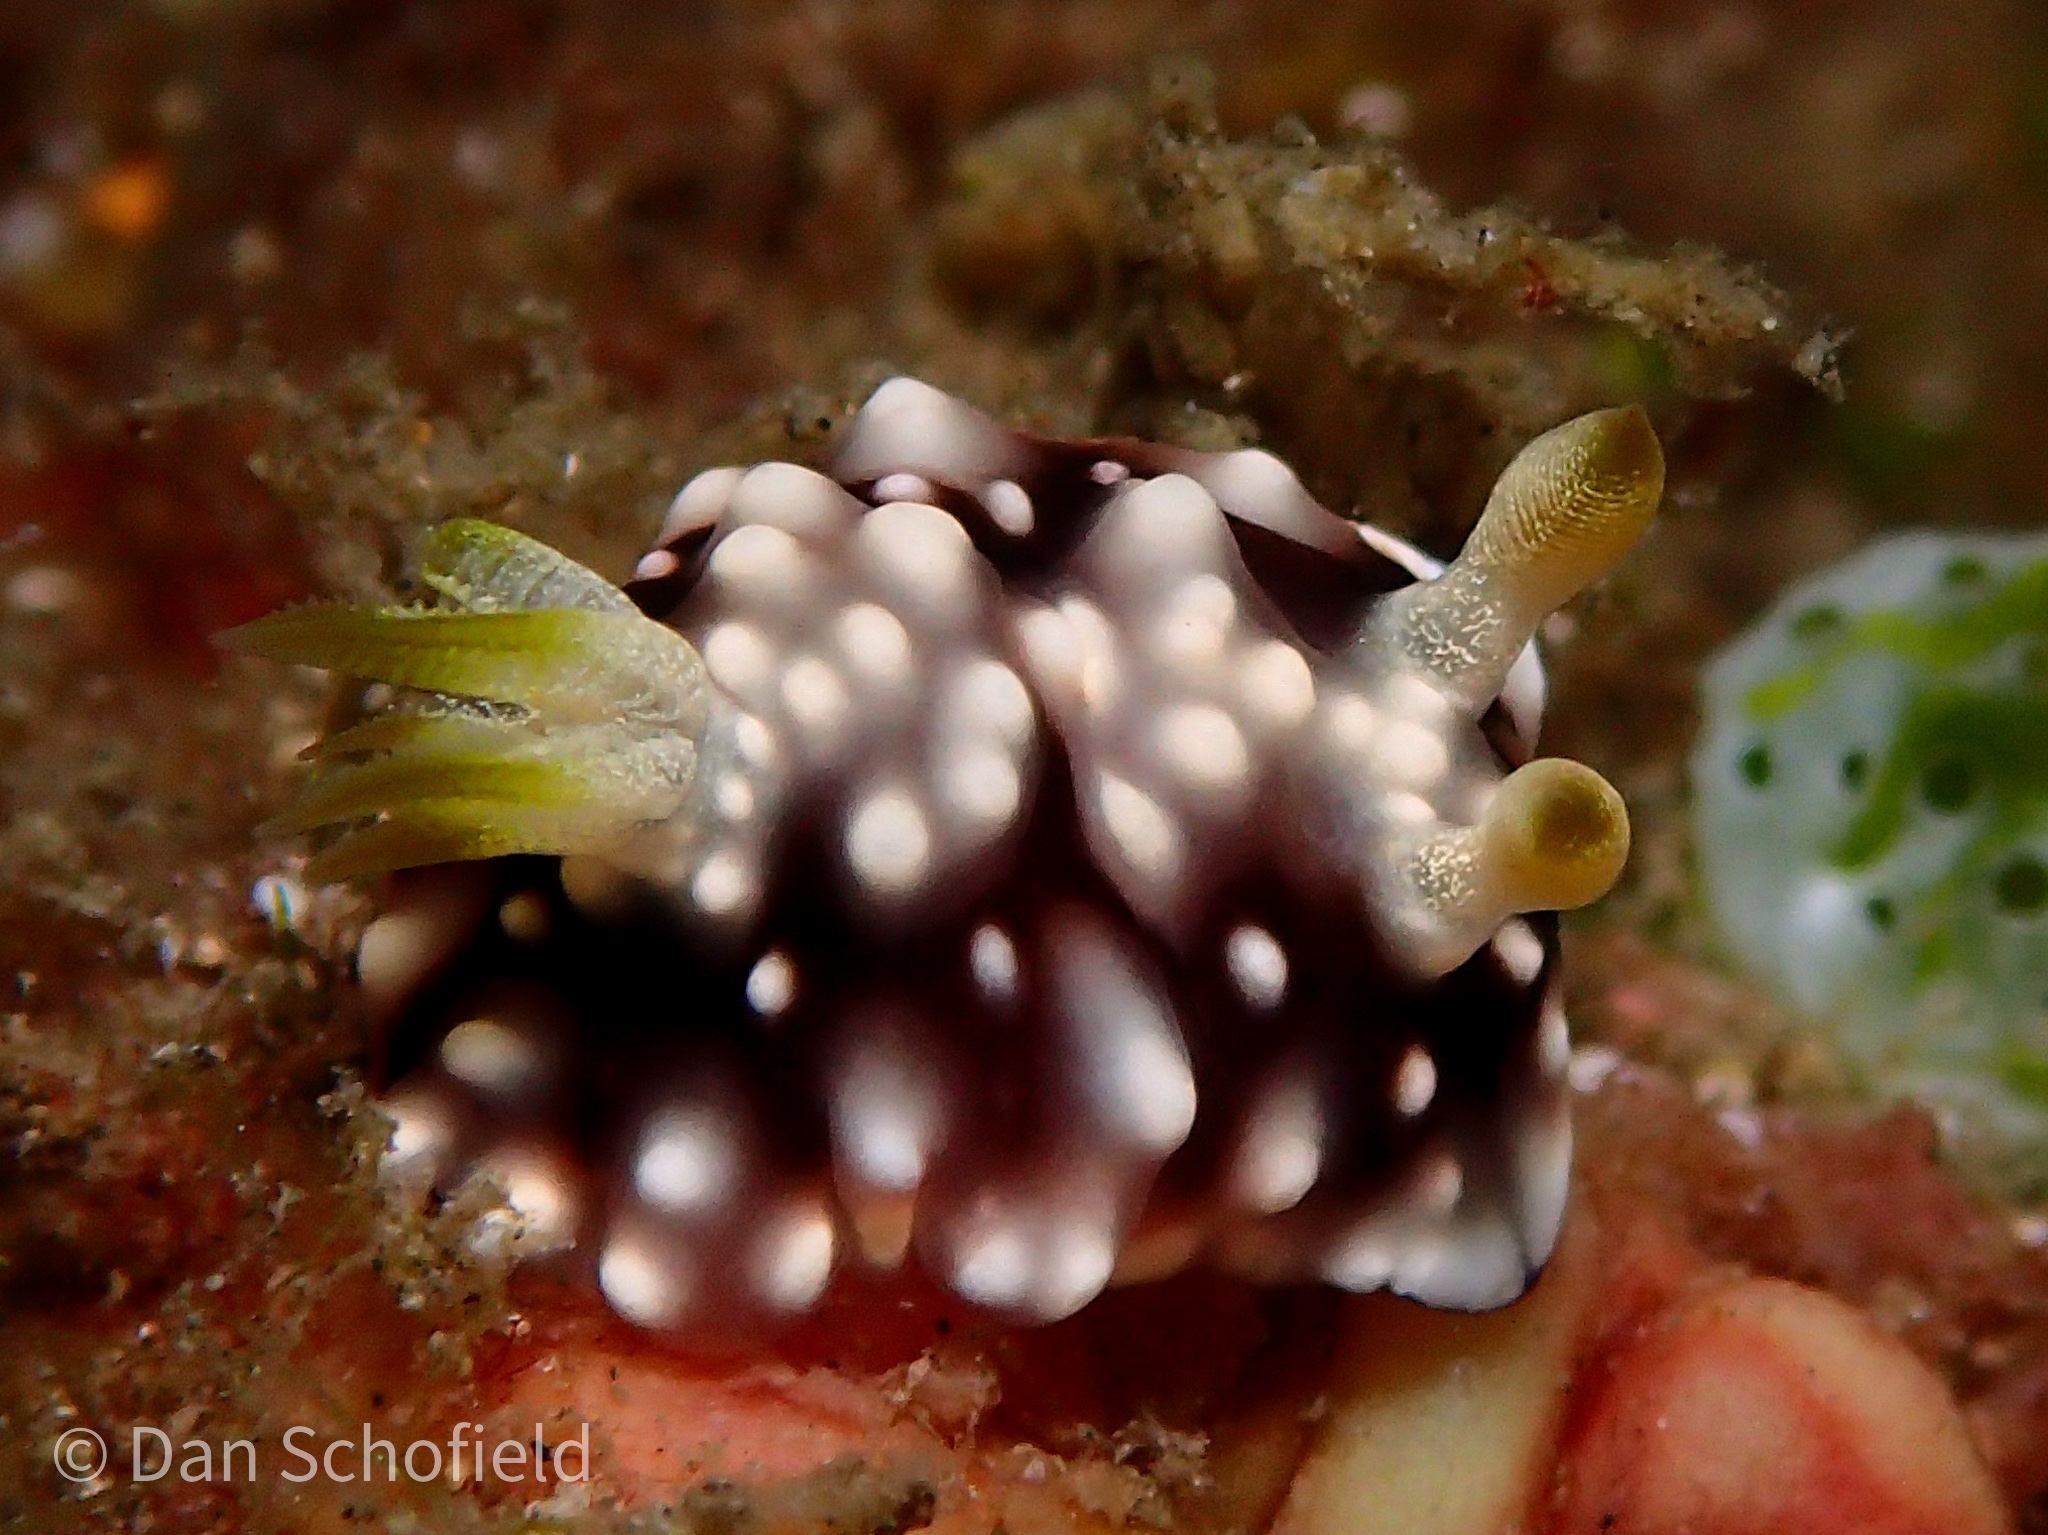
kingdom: Animalia
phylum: Mollusca
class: Gastropoda
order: Nudibranchia
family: Chromodorididae
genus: Goniobranchus
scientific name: Goniobranchus geometricus
